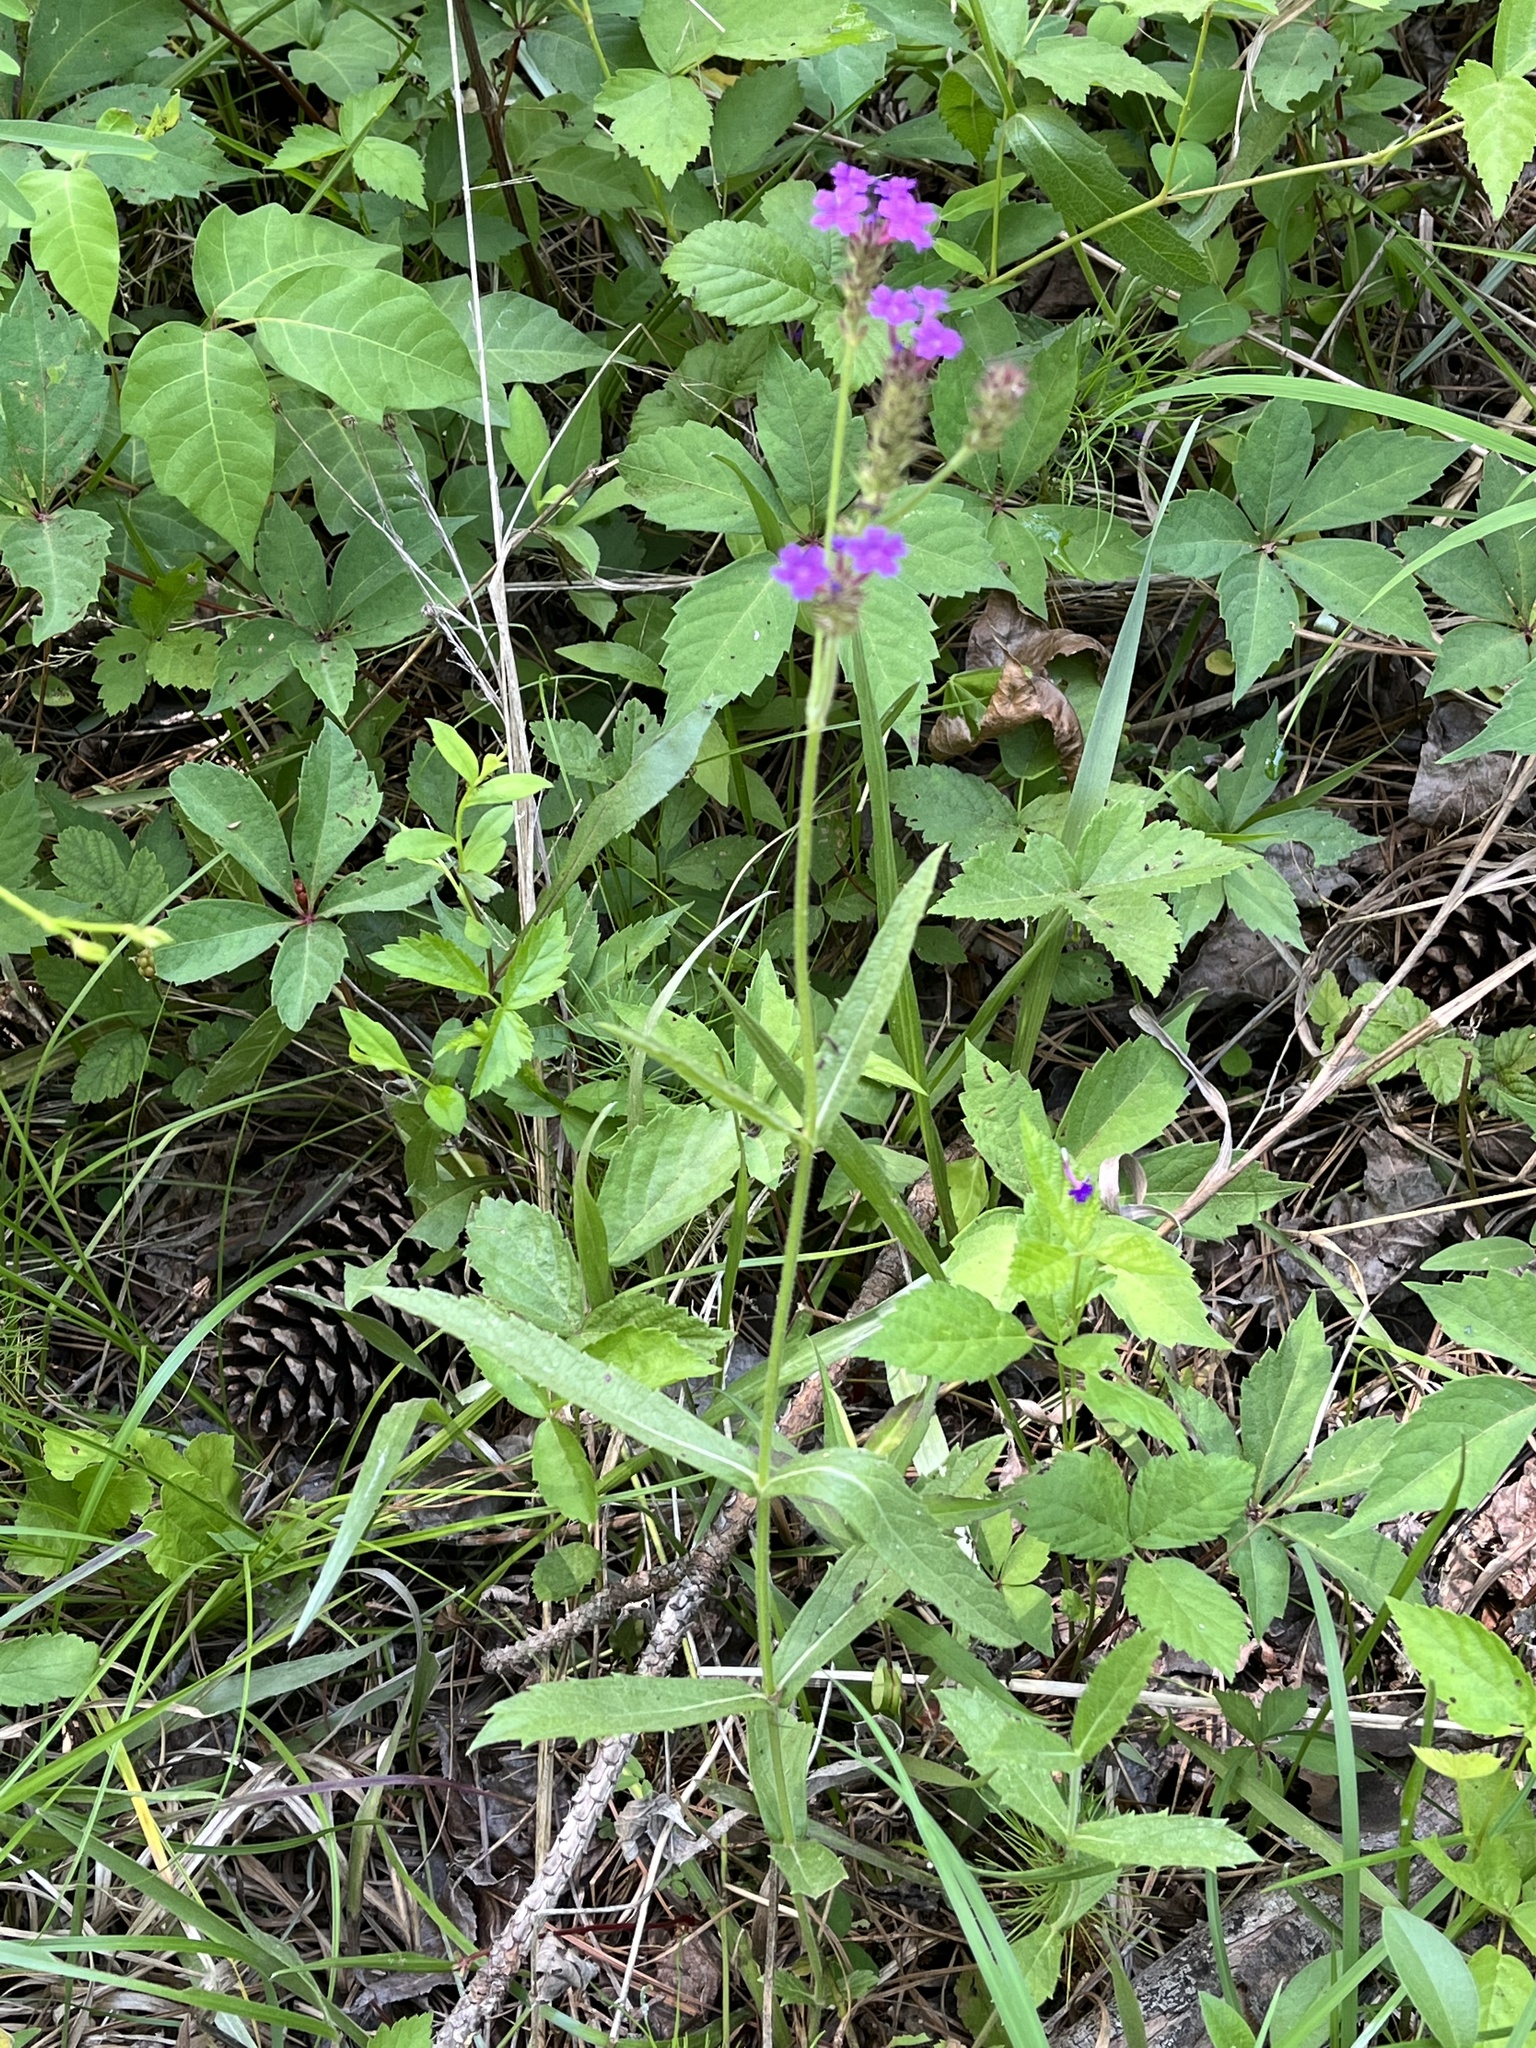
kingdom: Plantae
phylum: Tracheophyta
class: Magnoliopsida
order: Lamiales
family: Verbenaceae
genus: Verbena
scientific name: Verbena rigida
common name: Slender vervain
